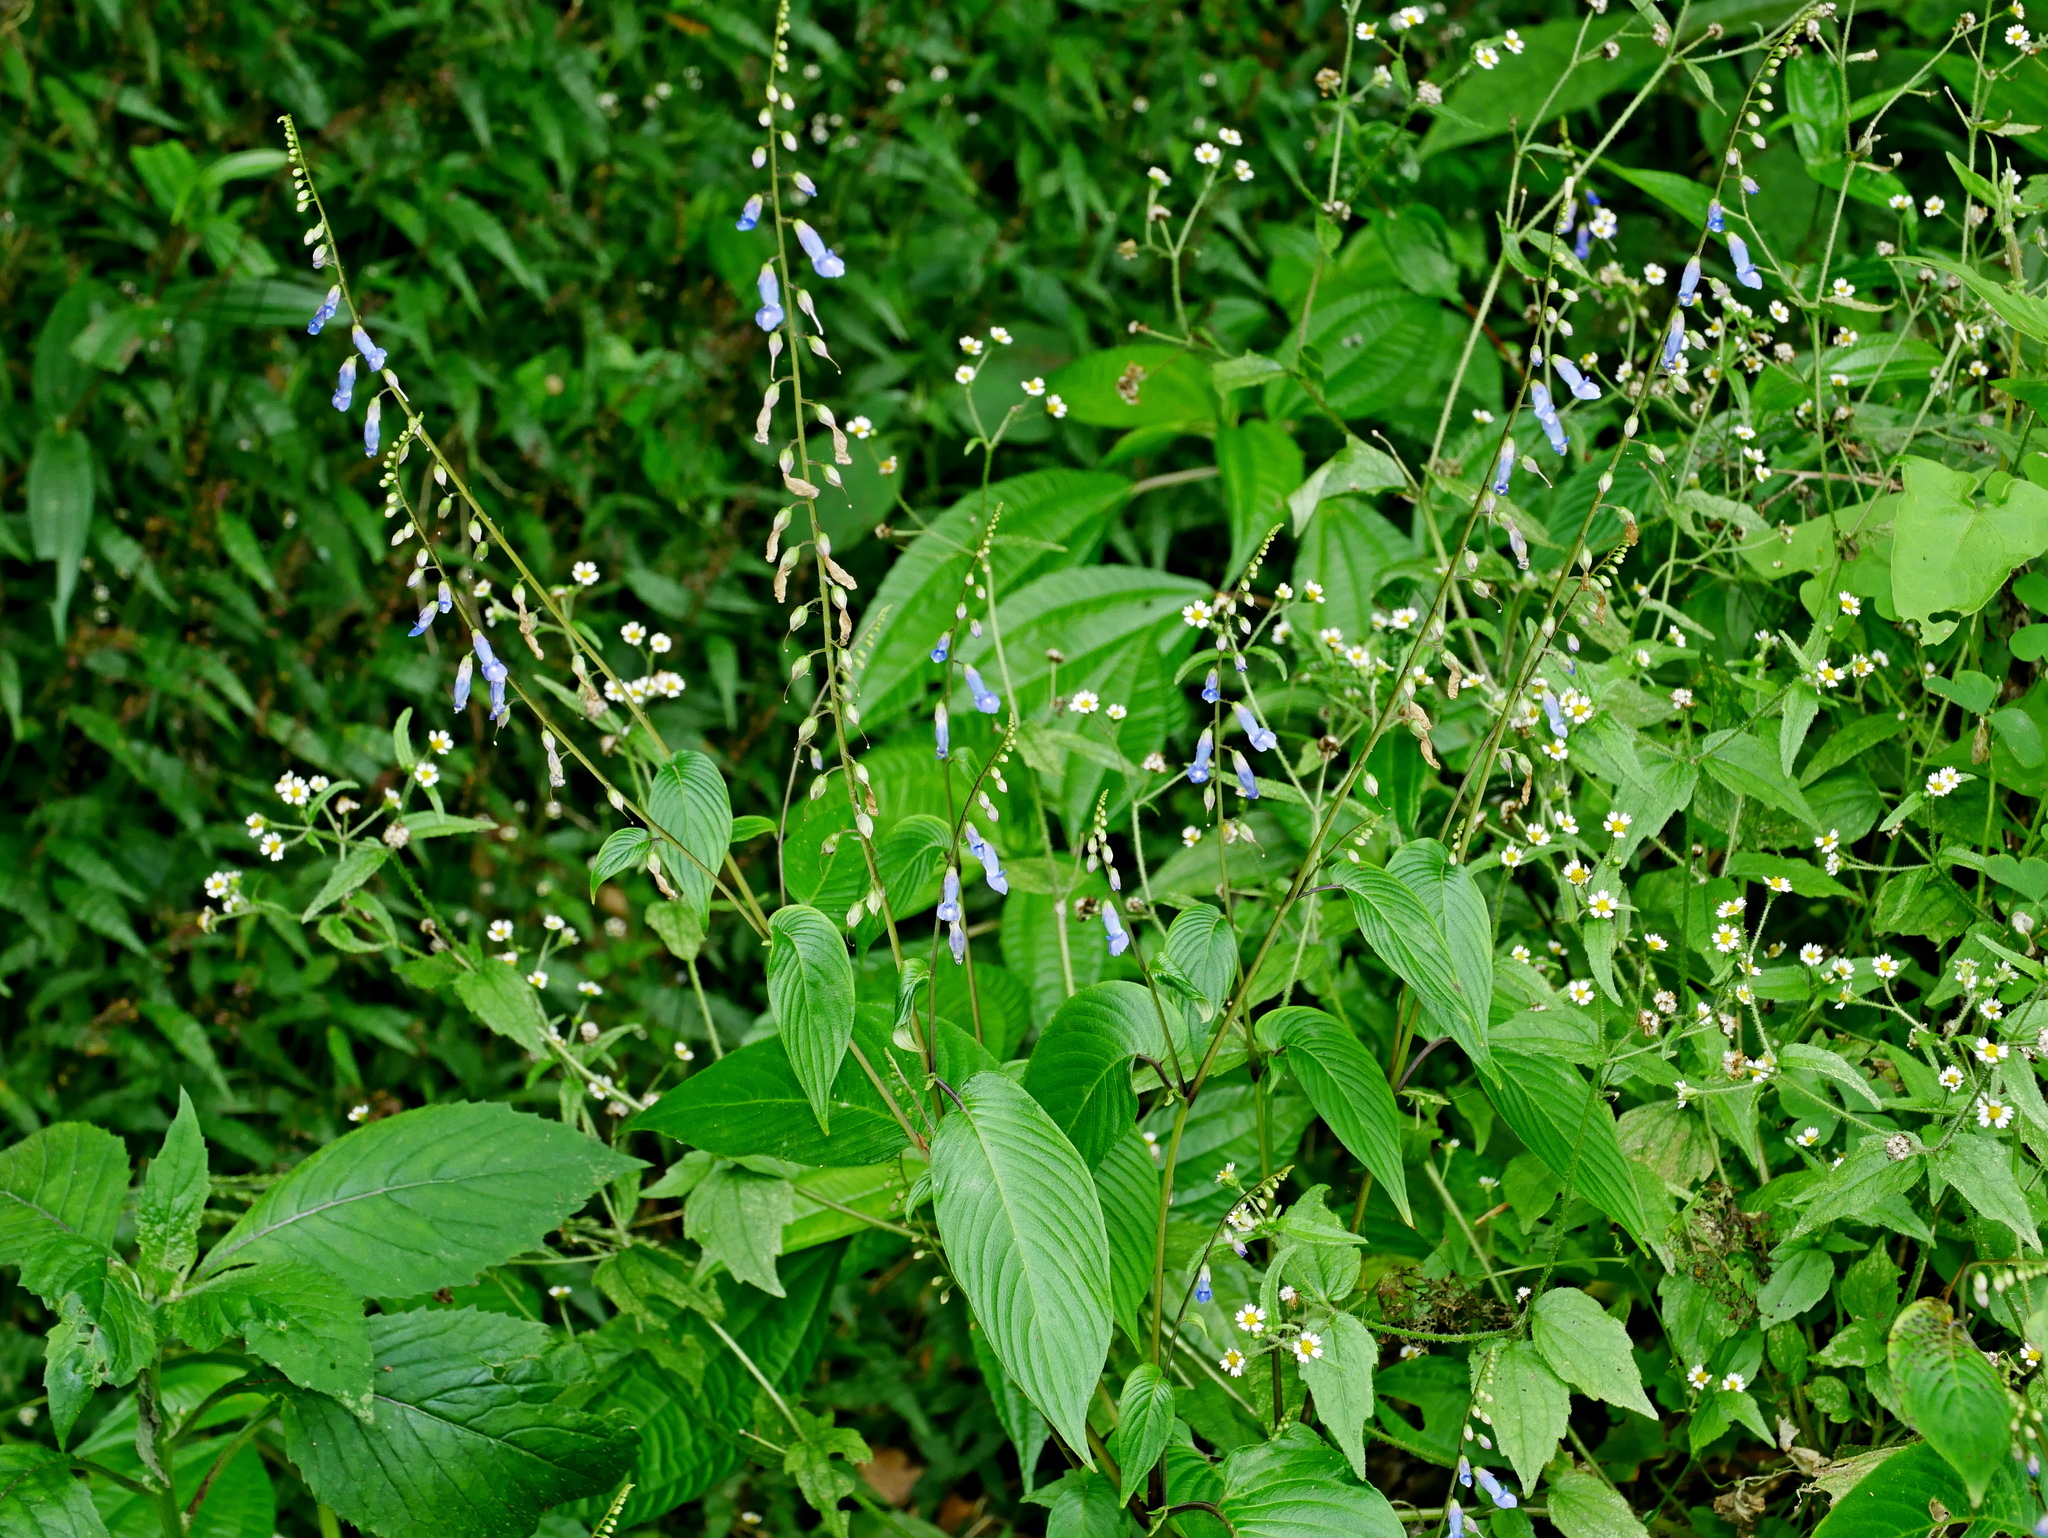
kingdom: Plantae
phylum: Tracheophyta
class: Magnoliopsida
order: Lamiales
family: Gesneriaceae
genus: Rhynchoglossum
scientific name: Rhynchoglossum obliquum
